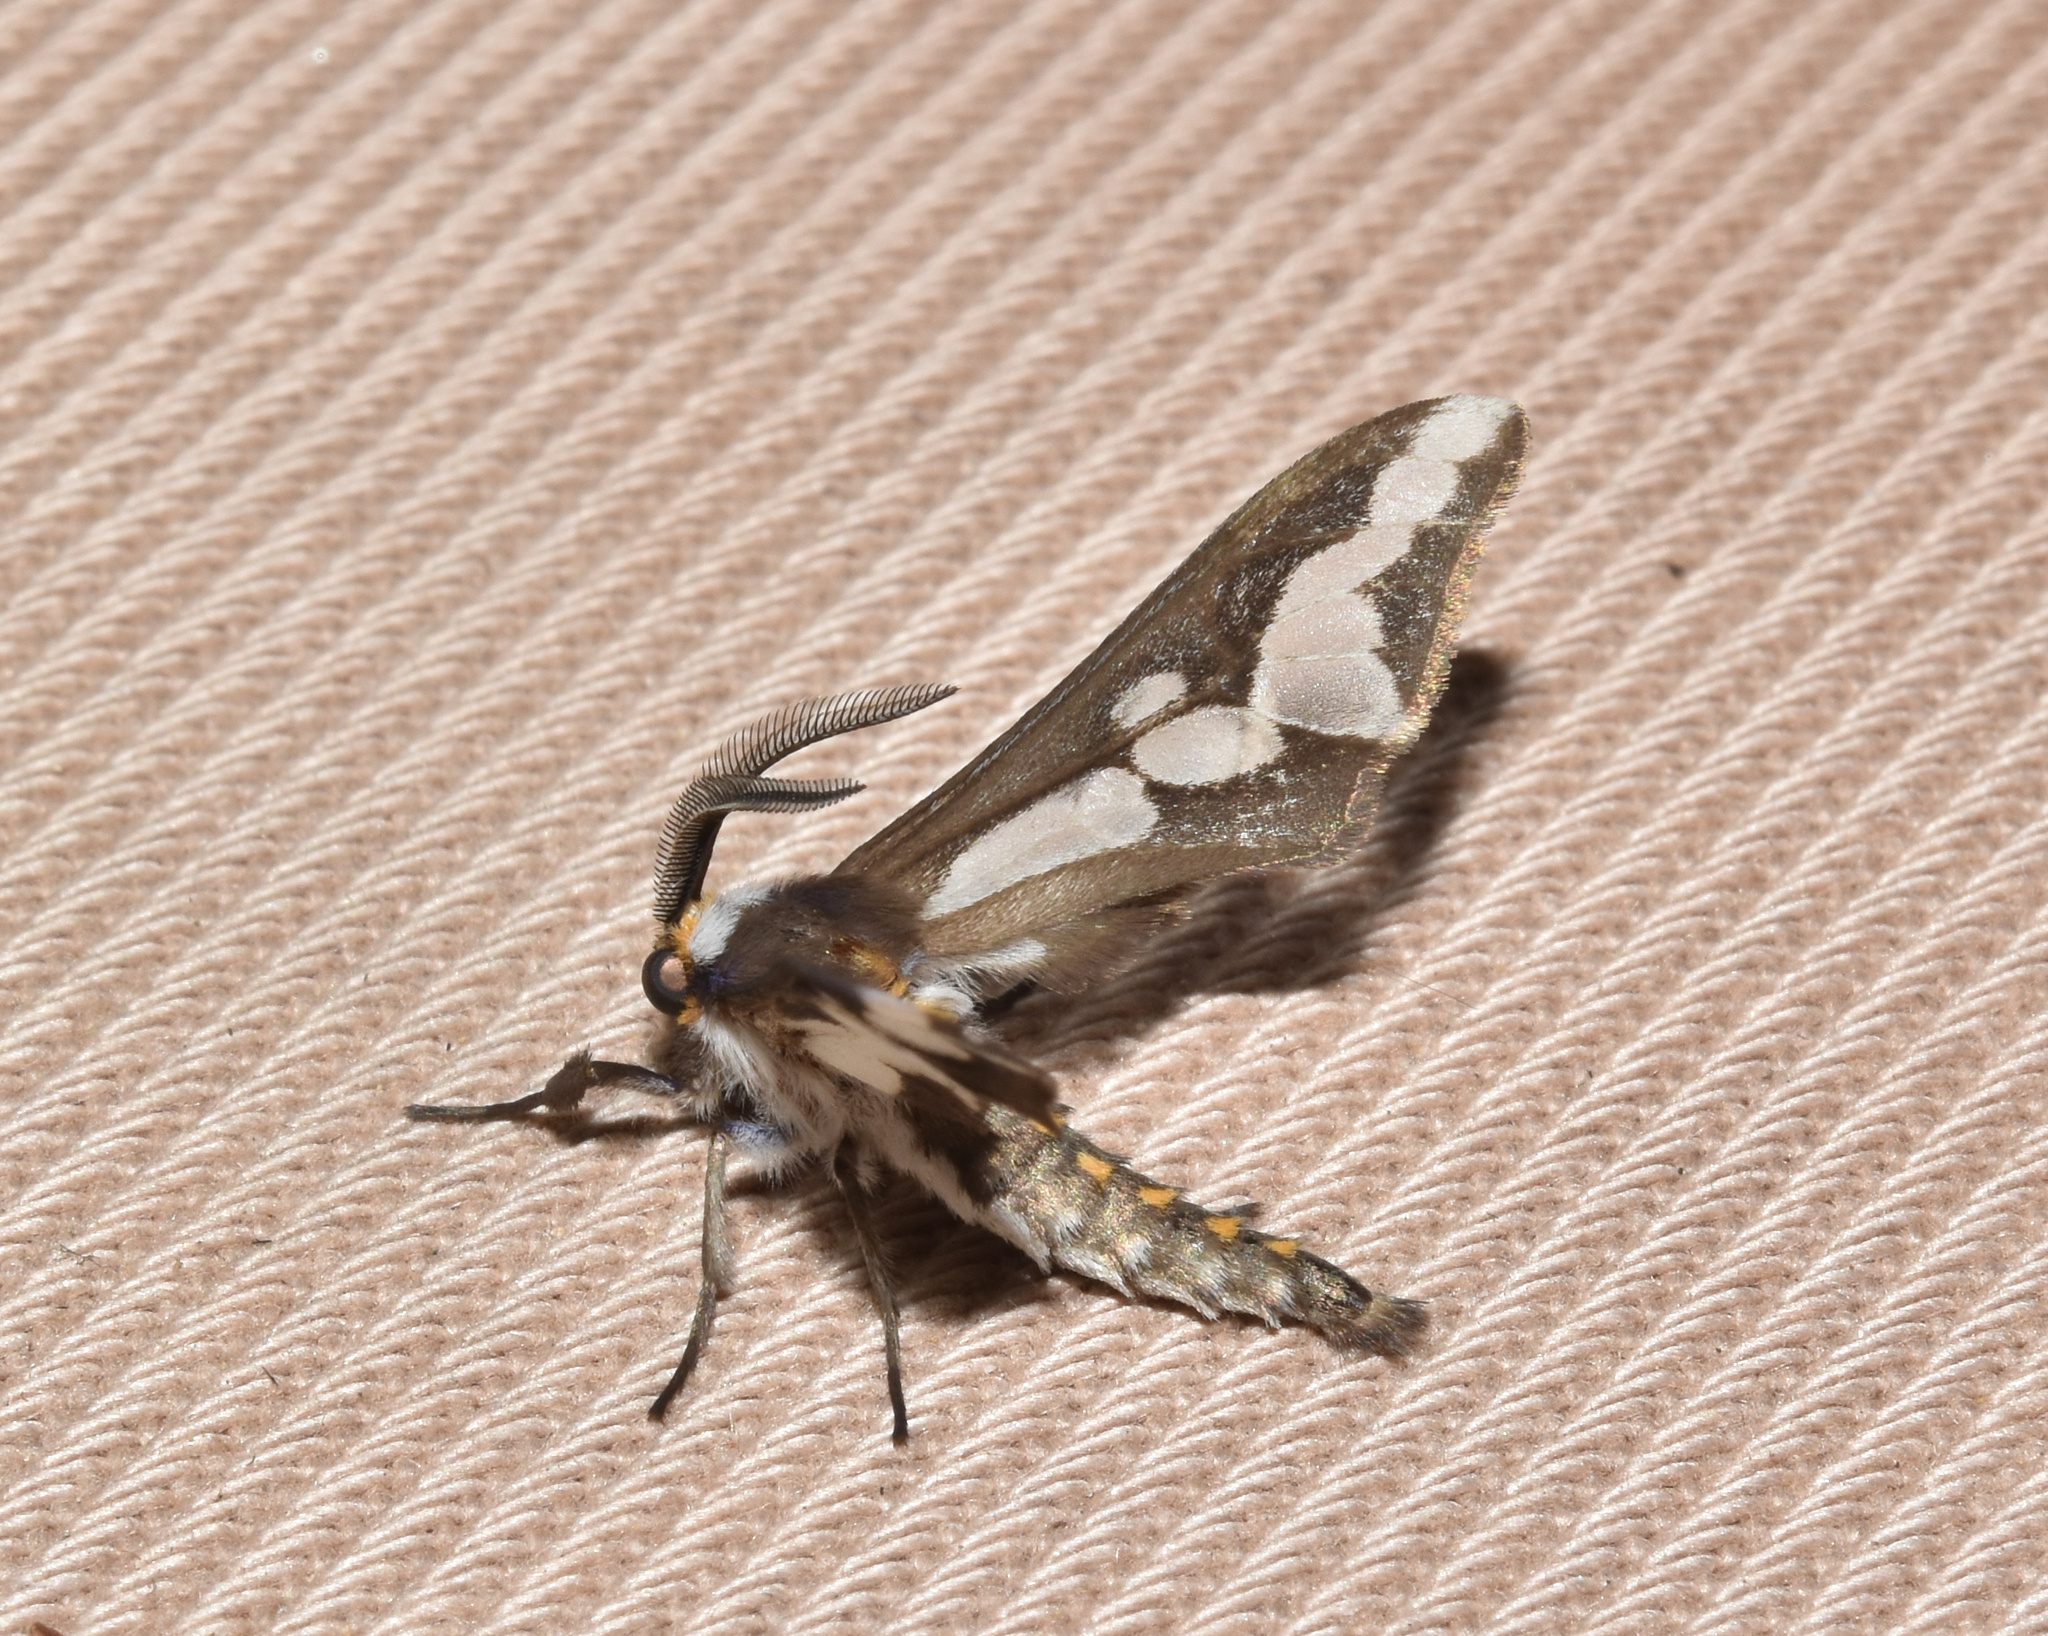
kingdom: Animalia
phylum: Arthropoda
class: Insecta
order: Lepidoptera
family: Erebidae
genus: Thyretes
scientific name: Thyretes caffra
